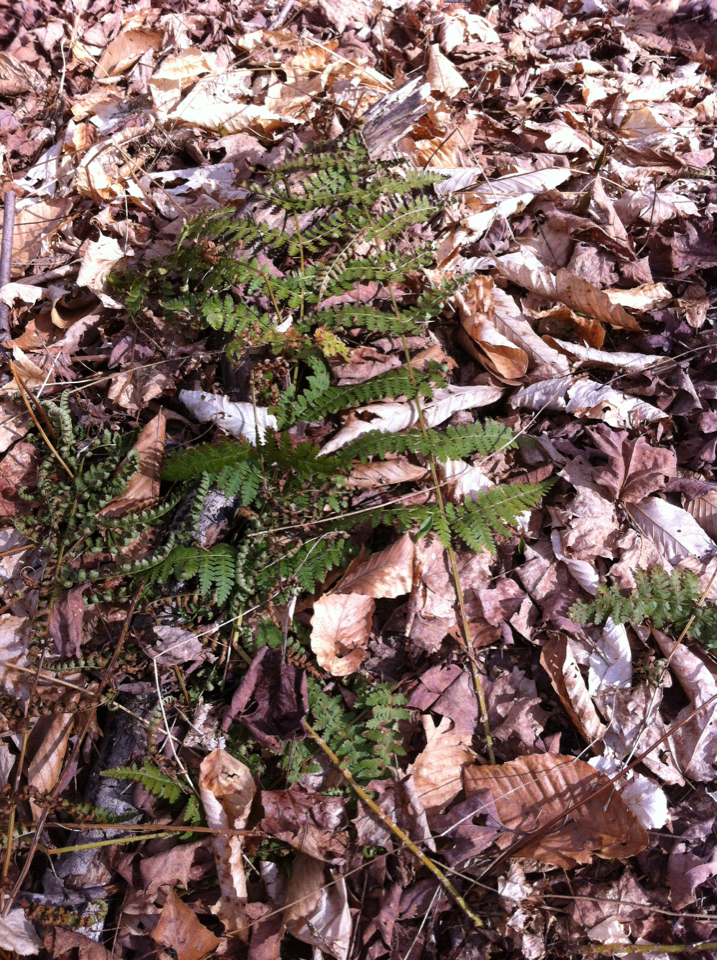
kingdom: Plantae
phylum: Tracheophyta
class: Polypodiopsida
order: Polypodiales
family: Dryopteridaceae
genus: Dryopteris
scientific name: Dryopteris intermedia
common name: Evergreen wood fern
